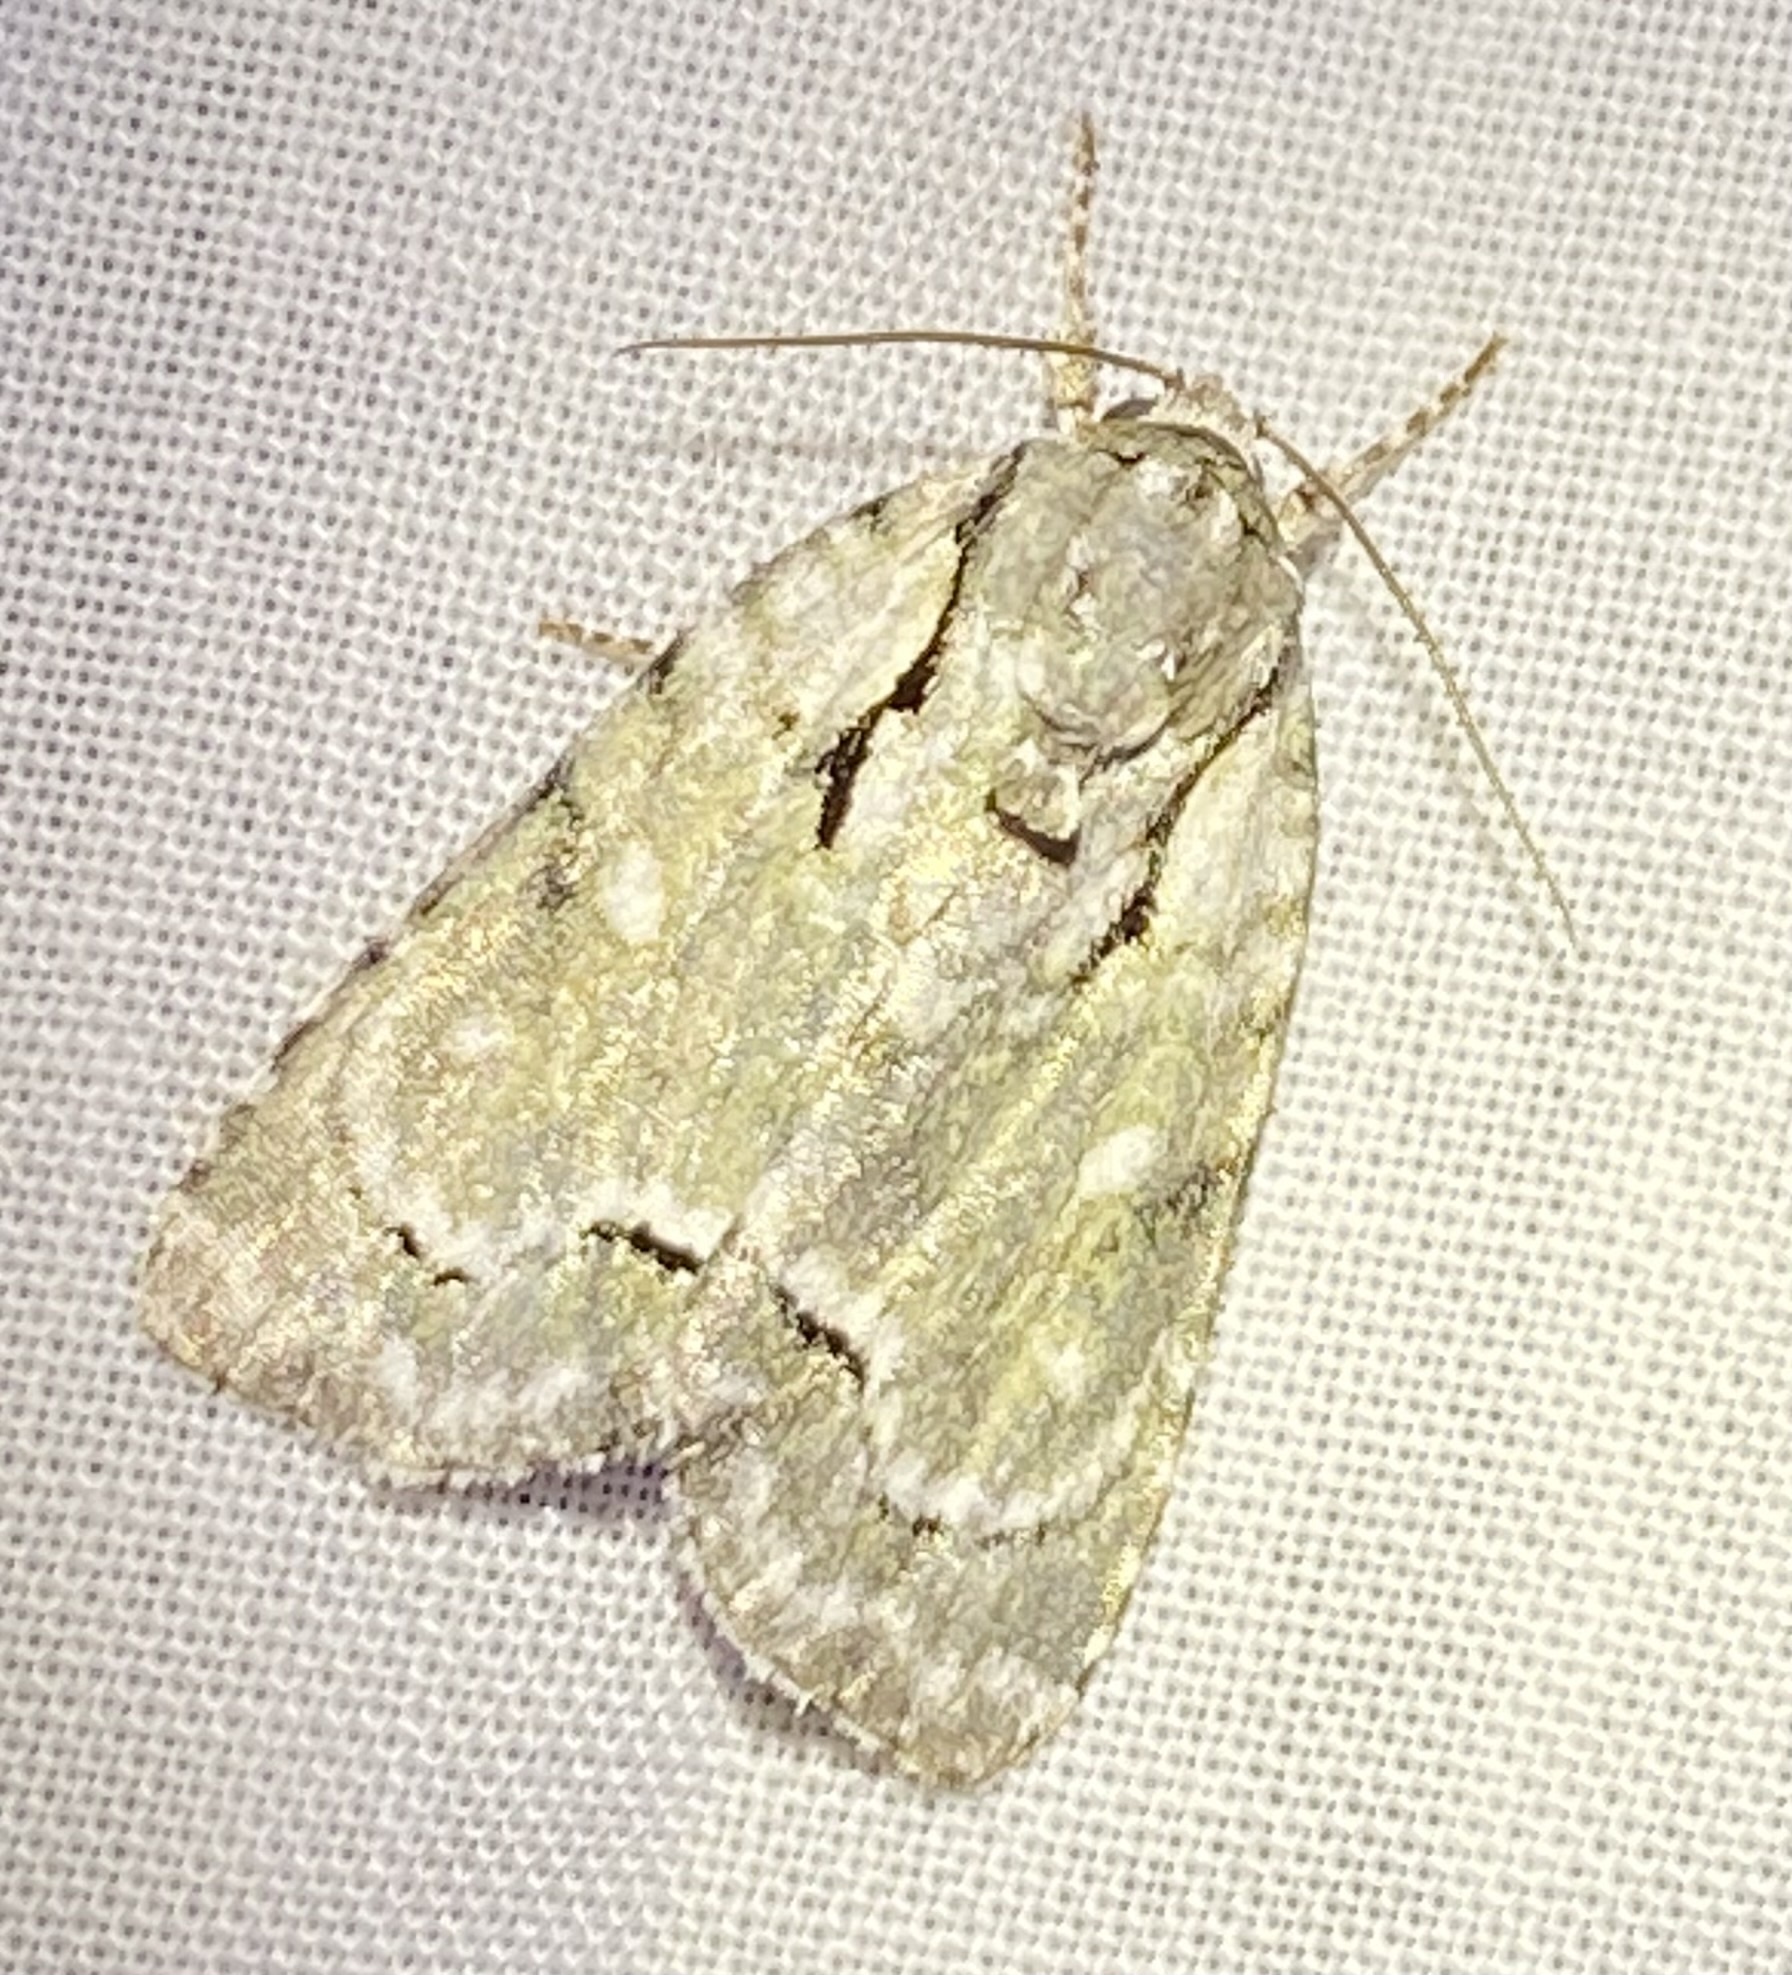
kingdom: Animalia
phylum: Arthropoda
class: Insecta
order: Lepidoptera
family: Noctuidae
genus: Acronicta
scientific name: Acronicta vinnula
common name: Delightful dagger
